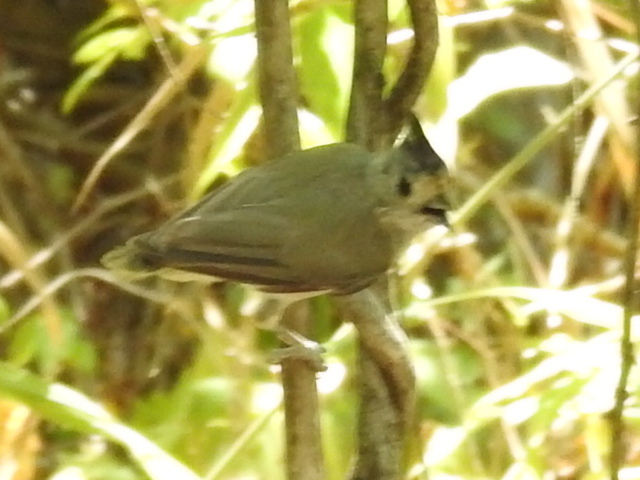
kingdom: Animalia
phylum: Chordata
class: Aves
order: Passeriformes
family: Paridae
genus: Baeolophus
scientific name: Baeolophus atricristatus
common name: Black-crested titmouse
